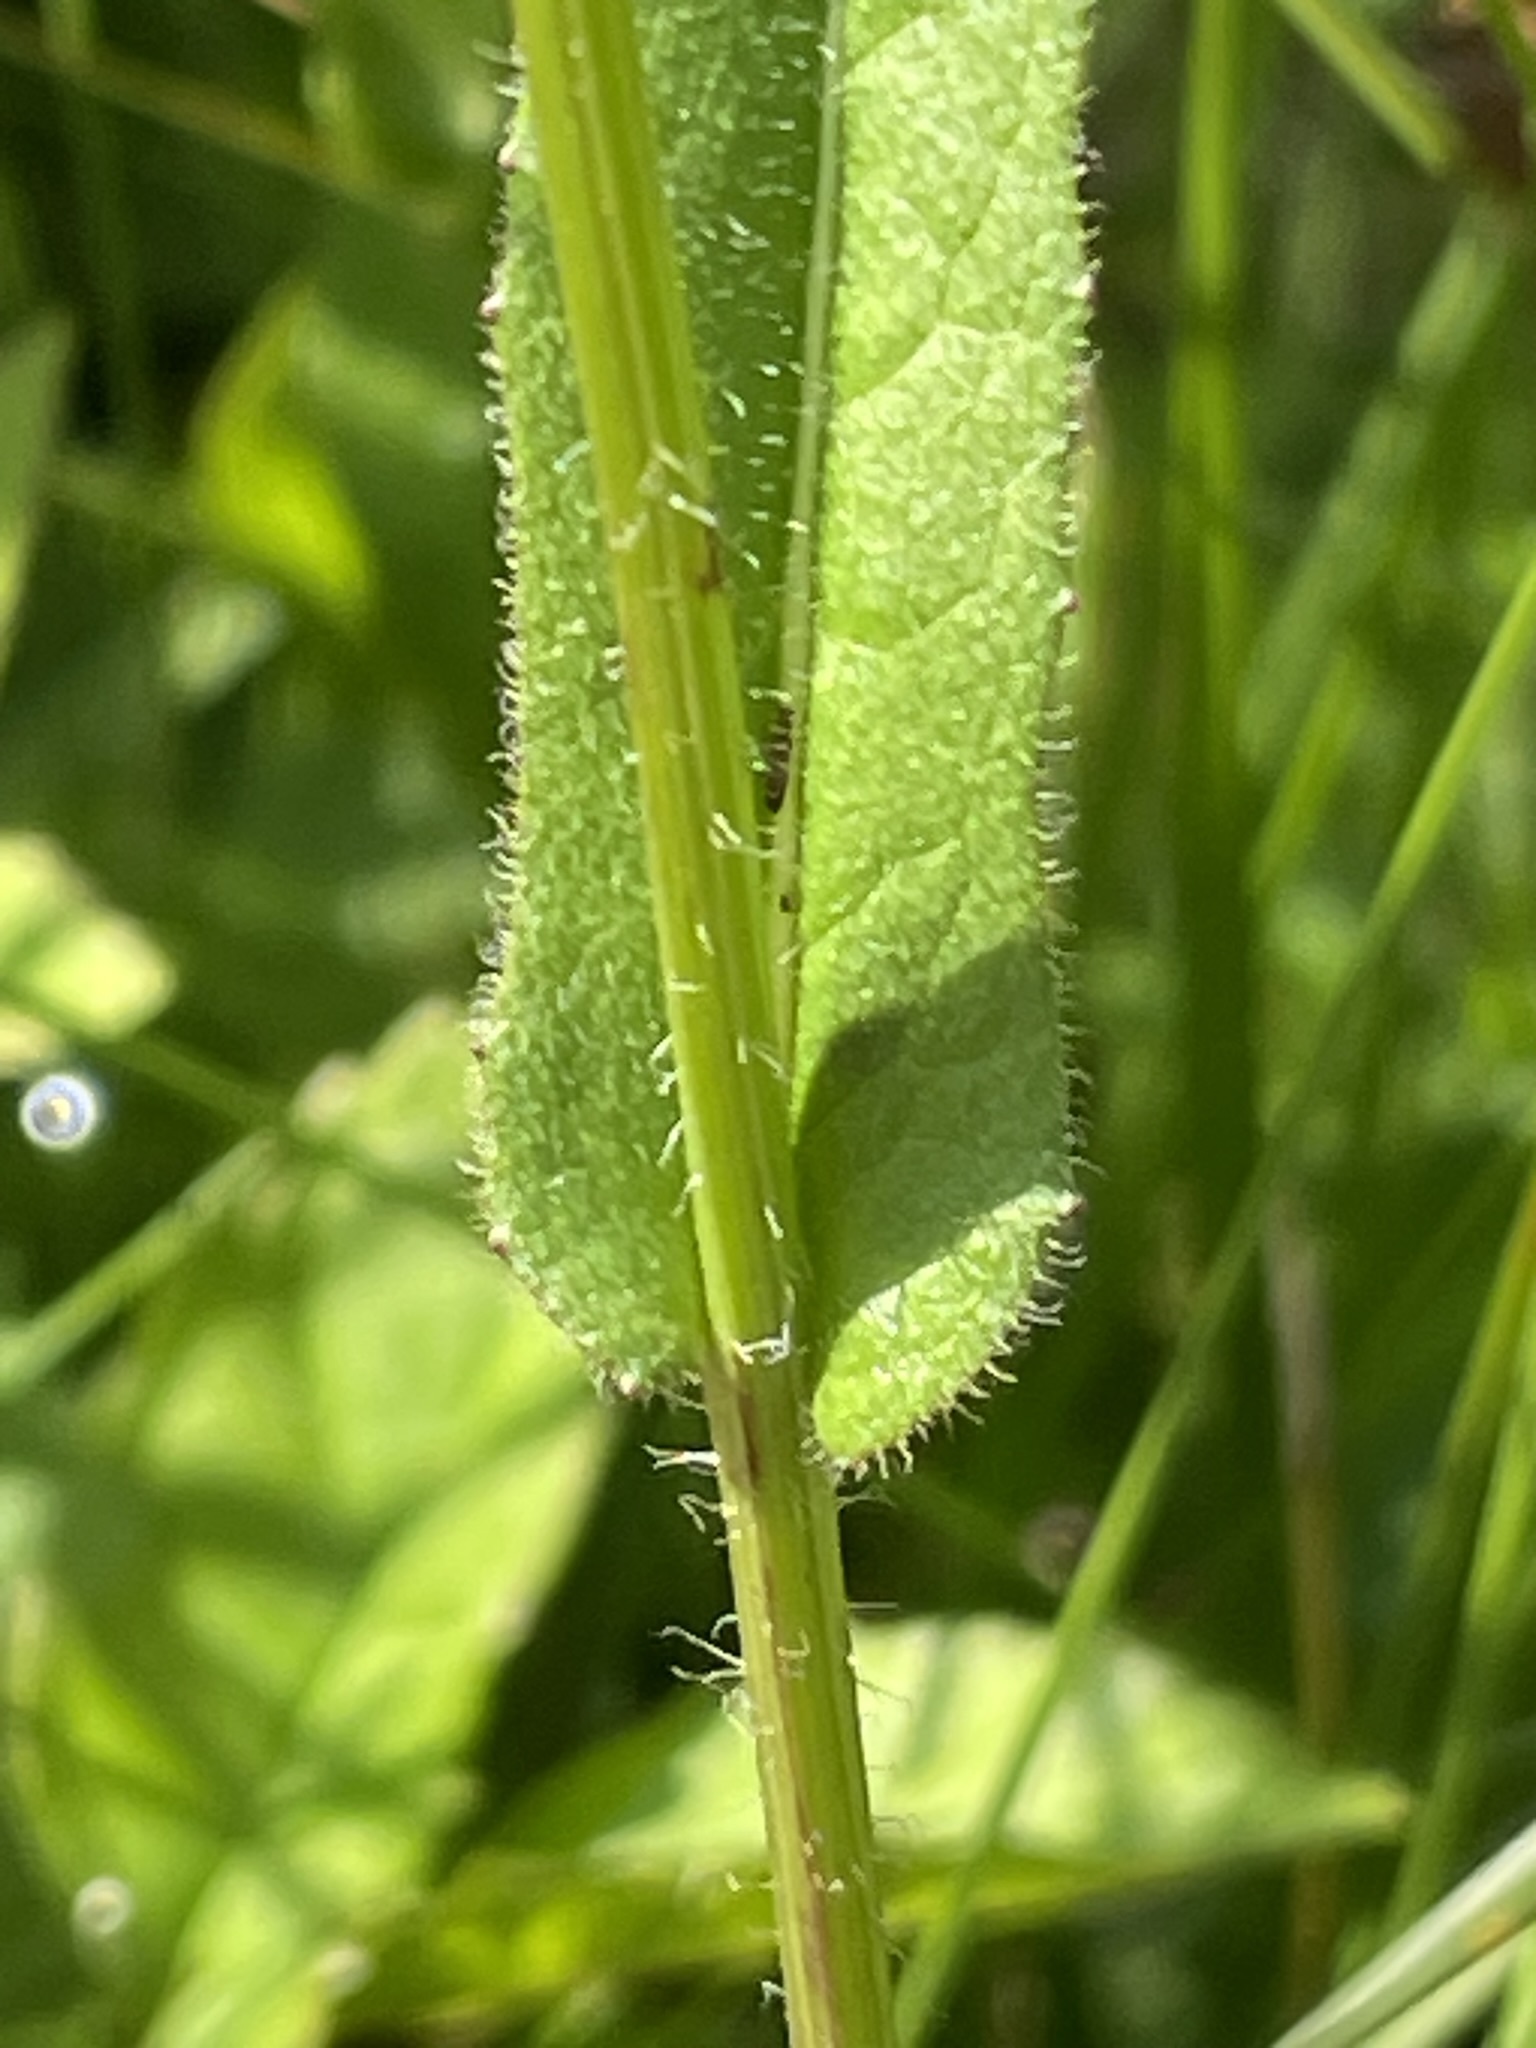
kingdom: Plantae
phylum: Tracheophyta
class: Magnoliopsida
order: Asterales
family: Asteraceae
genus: Crepis
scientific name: Crepis mollis
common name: Northern hawk's-beard
